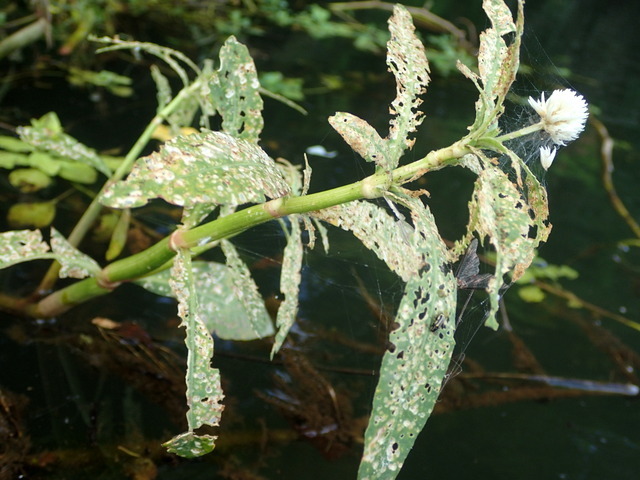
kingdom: Plantae
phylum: Tracheophyta
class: Magnoliopsida
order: Caryophyllales
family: Amaranthaceae
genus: Alternanthera
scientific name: Alternanthera philoxeroides
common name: Alligatorweed
